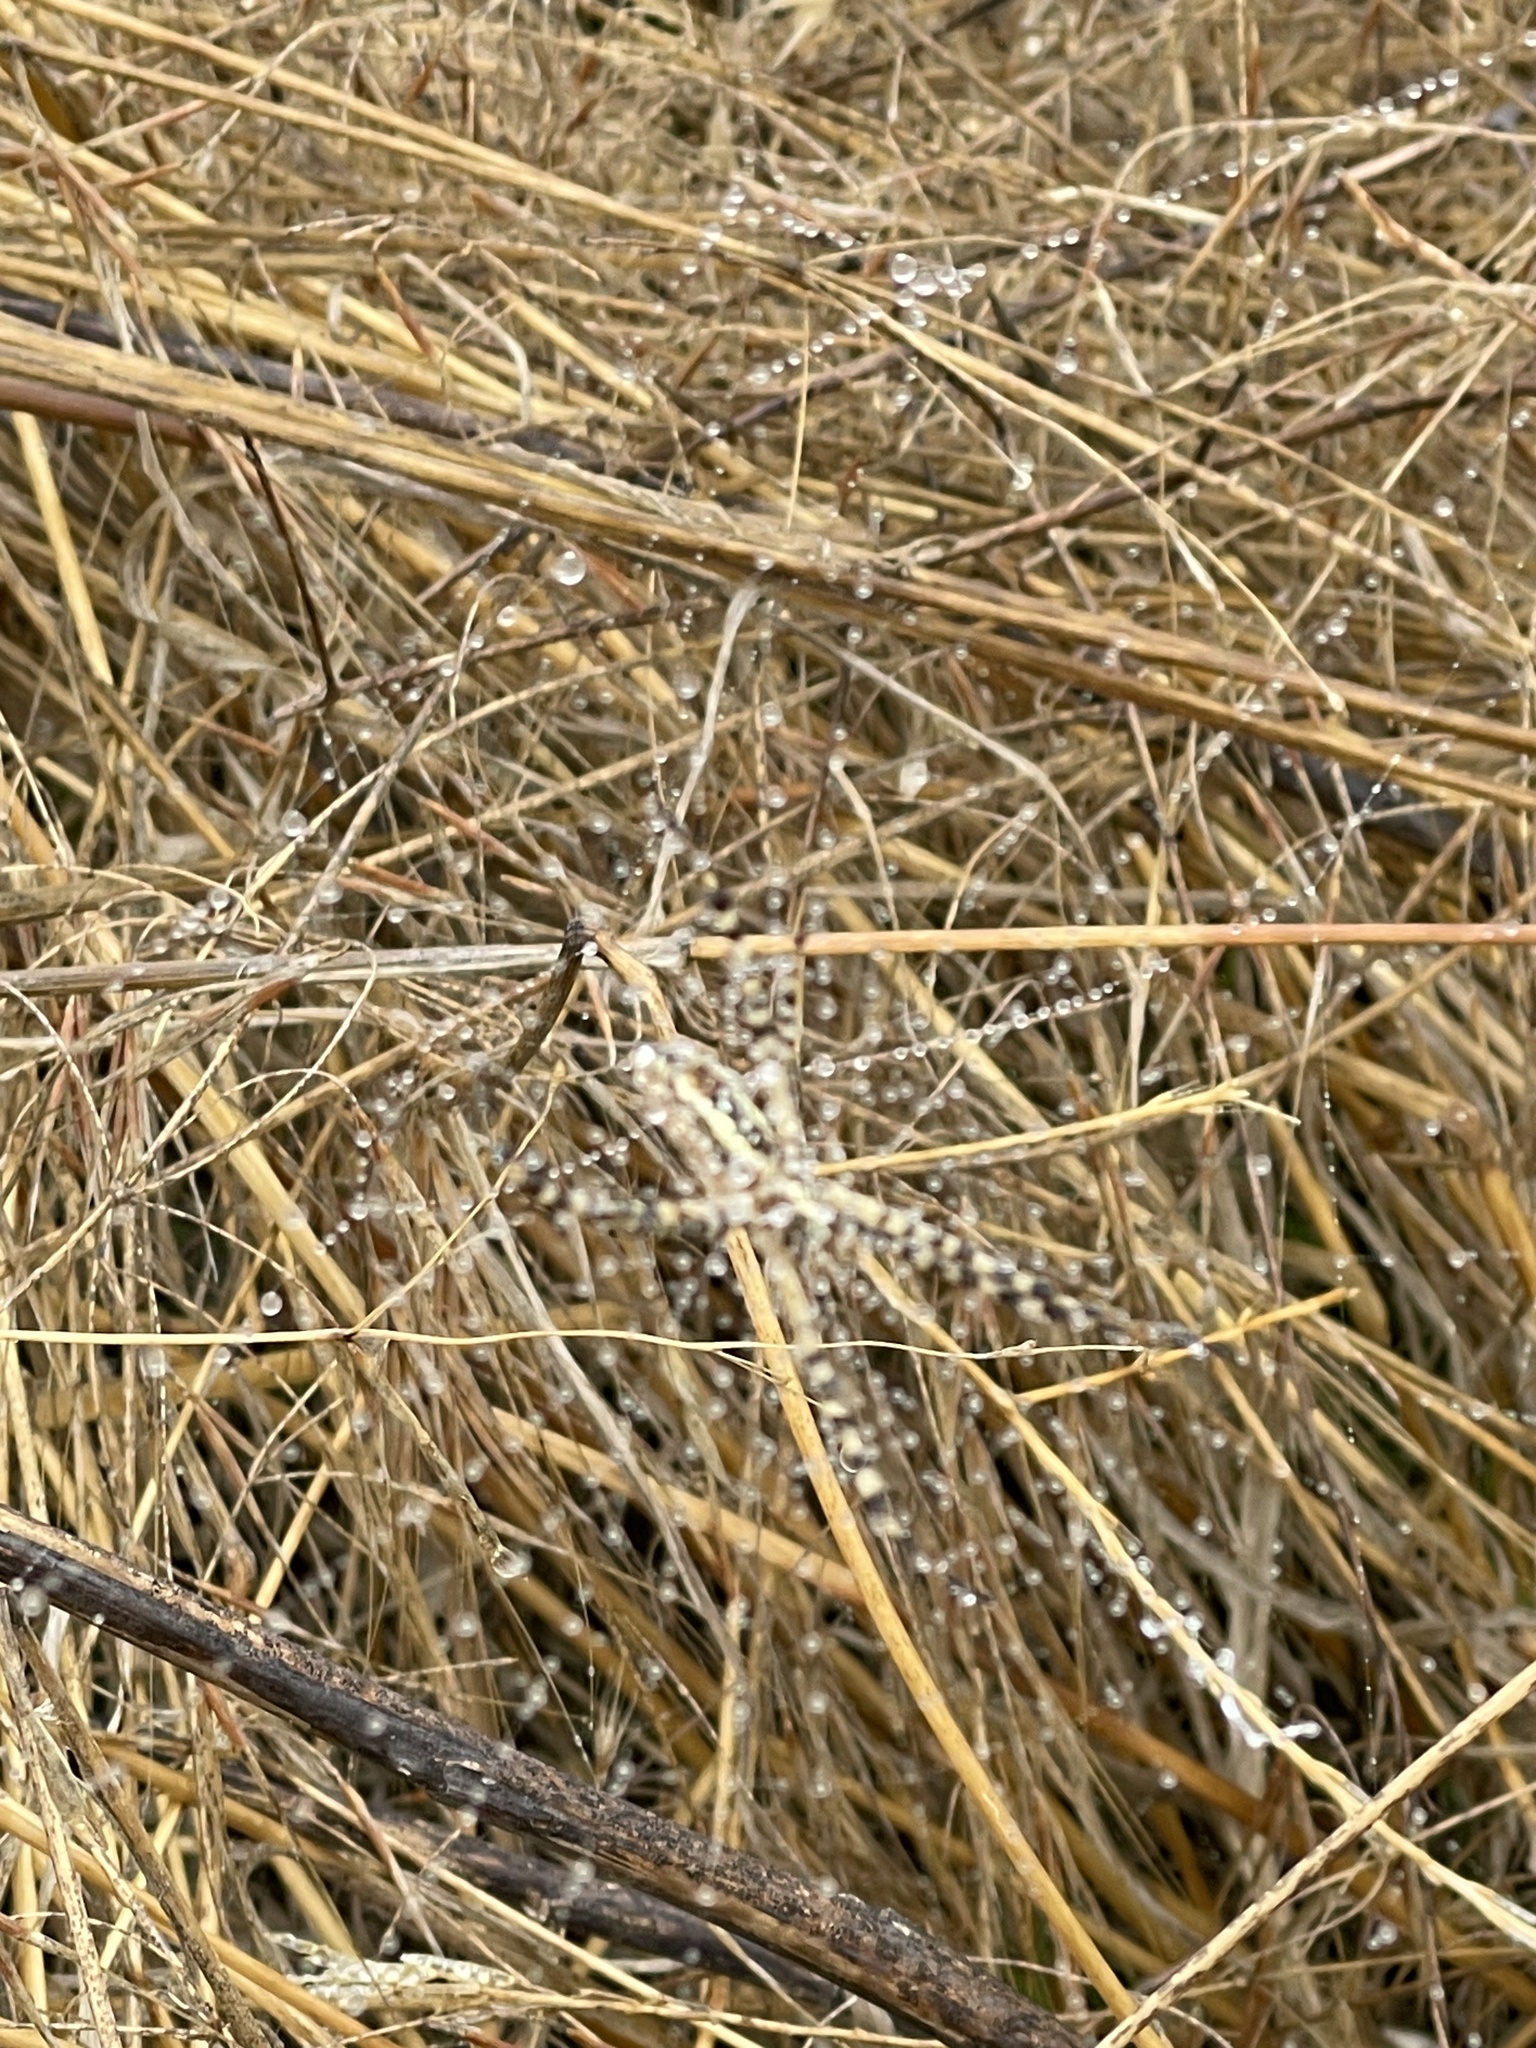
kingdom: Animalia
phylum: Arthropoda
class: Arachnida
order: Araneae
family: Araneidae
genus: Argiope
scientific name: Argiope trifasciata
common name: Banded garden spider
